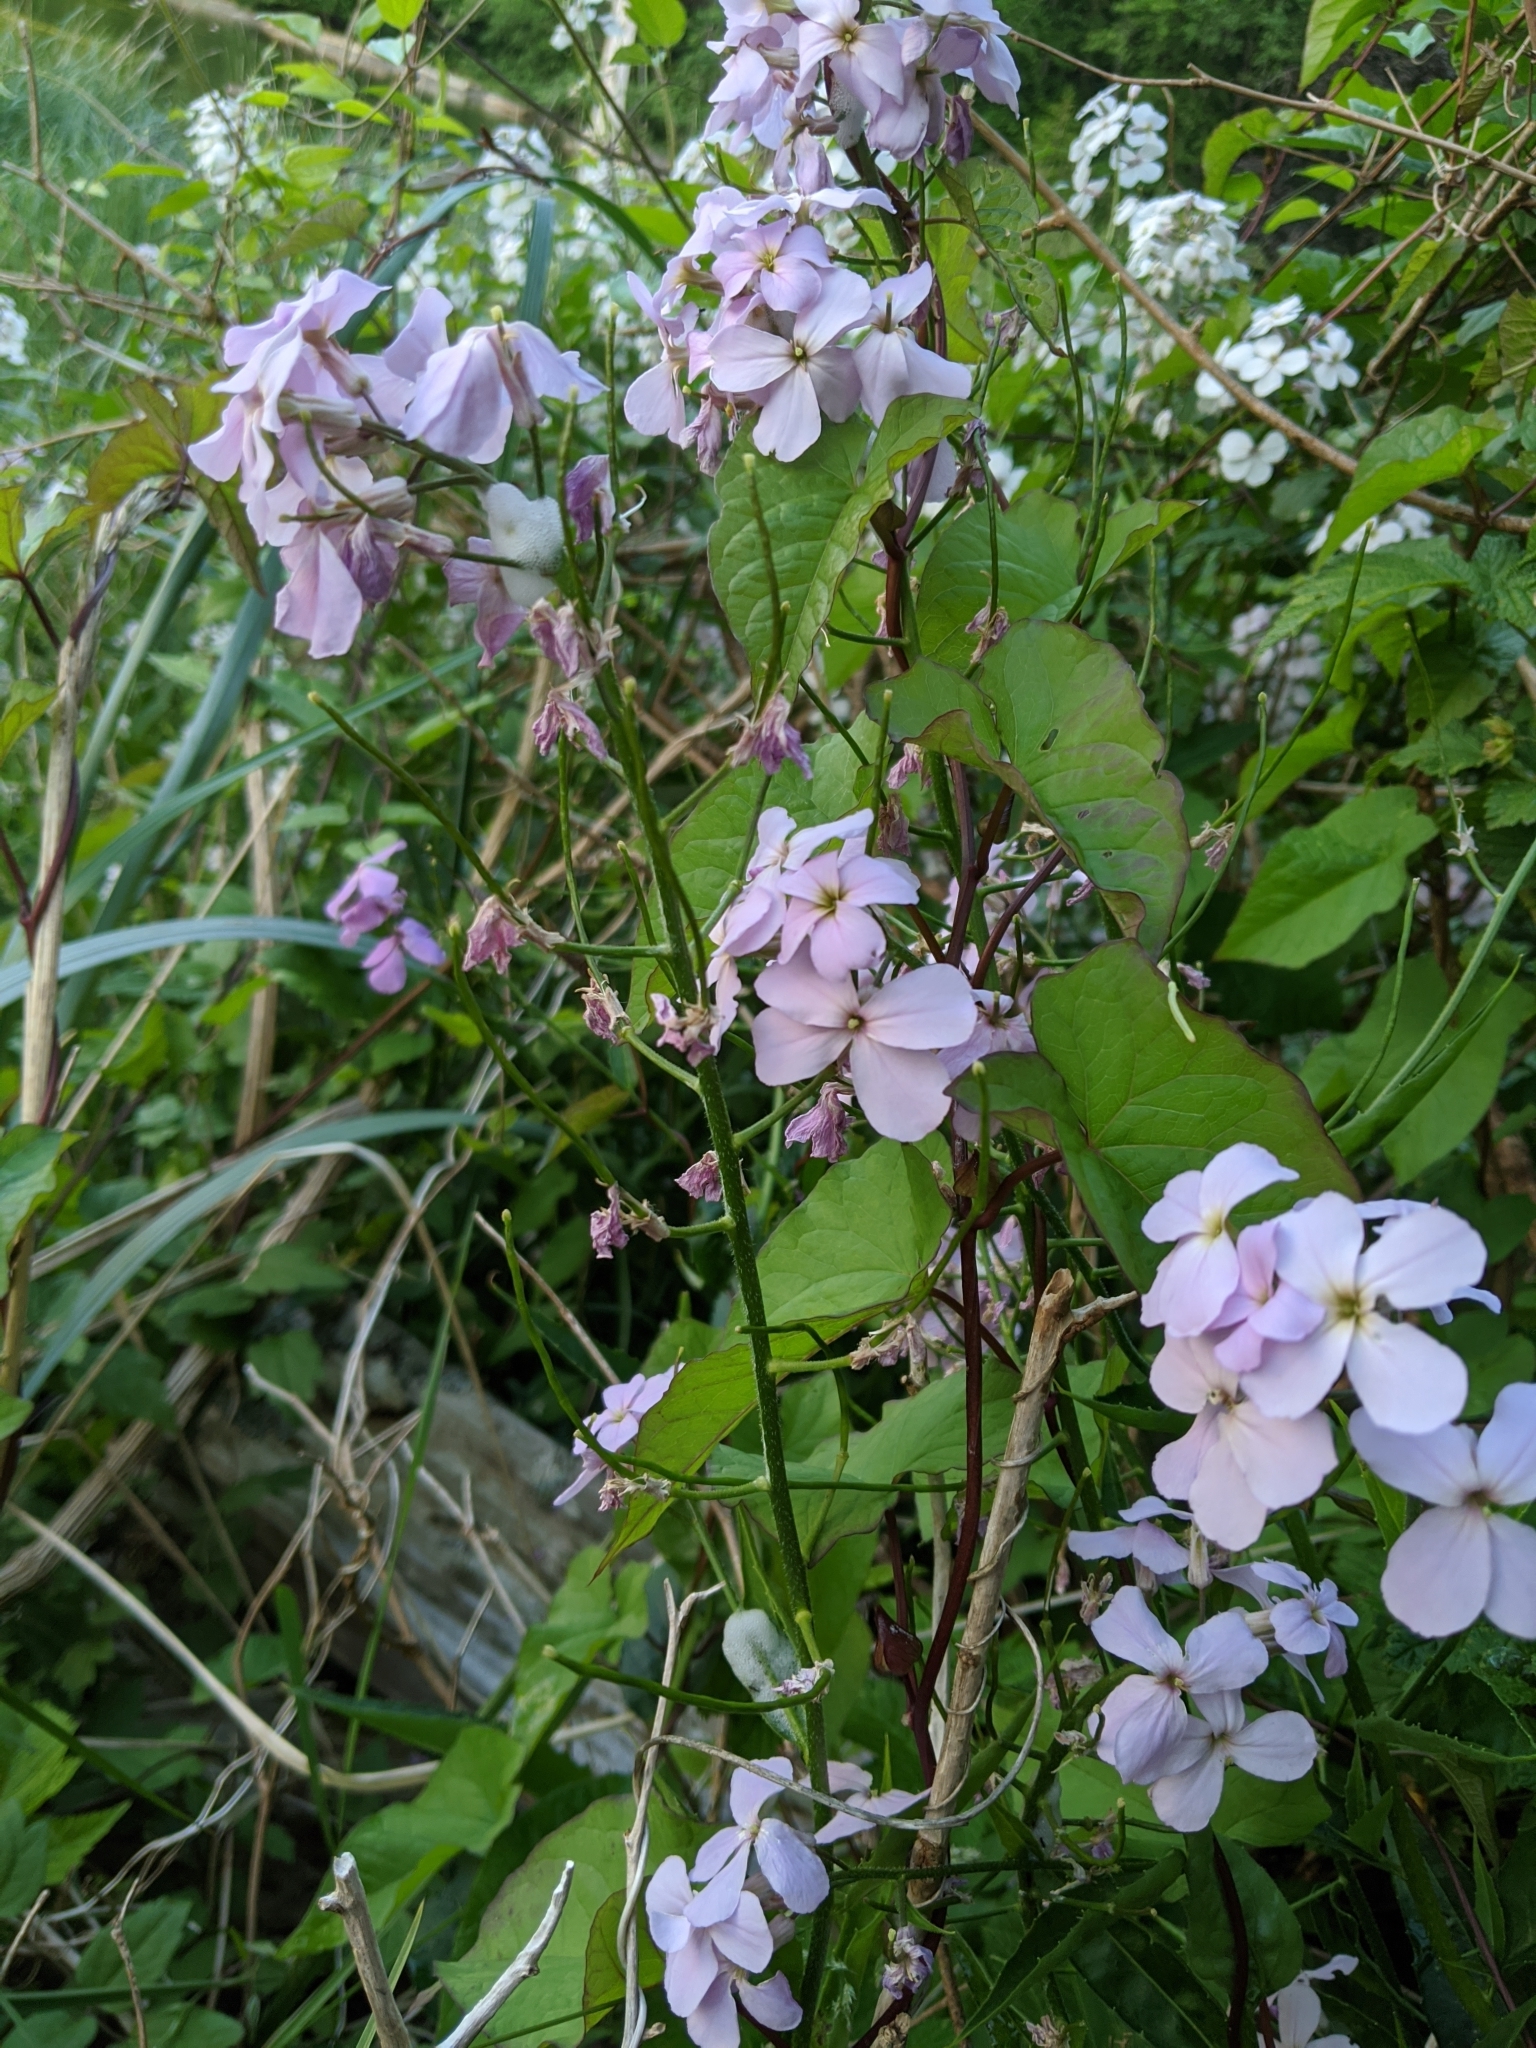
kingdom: Plantae
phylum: Tracheophyta
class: Magnoliopsida
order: Brassicales
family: Brassicaceae
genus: Hesperis
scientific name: Hesperis matronalis
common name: Dame's-violet
